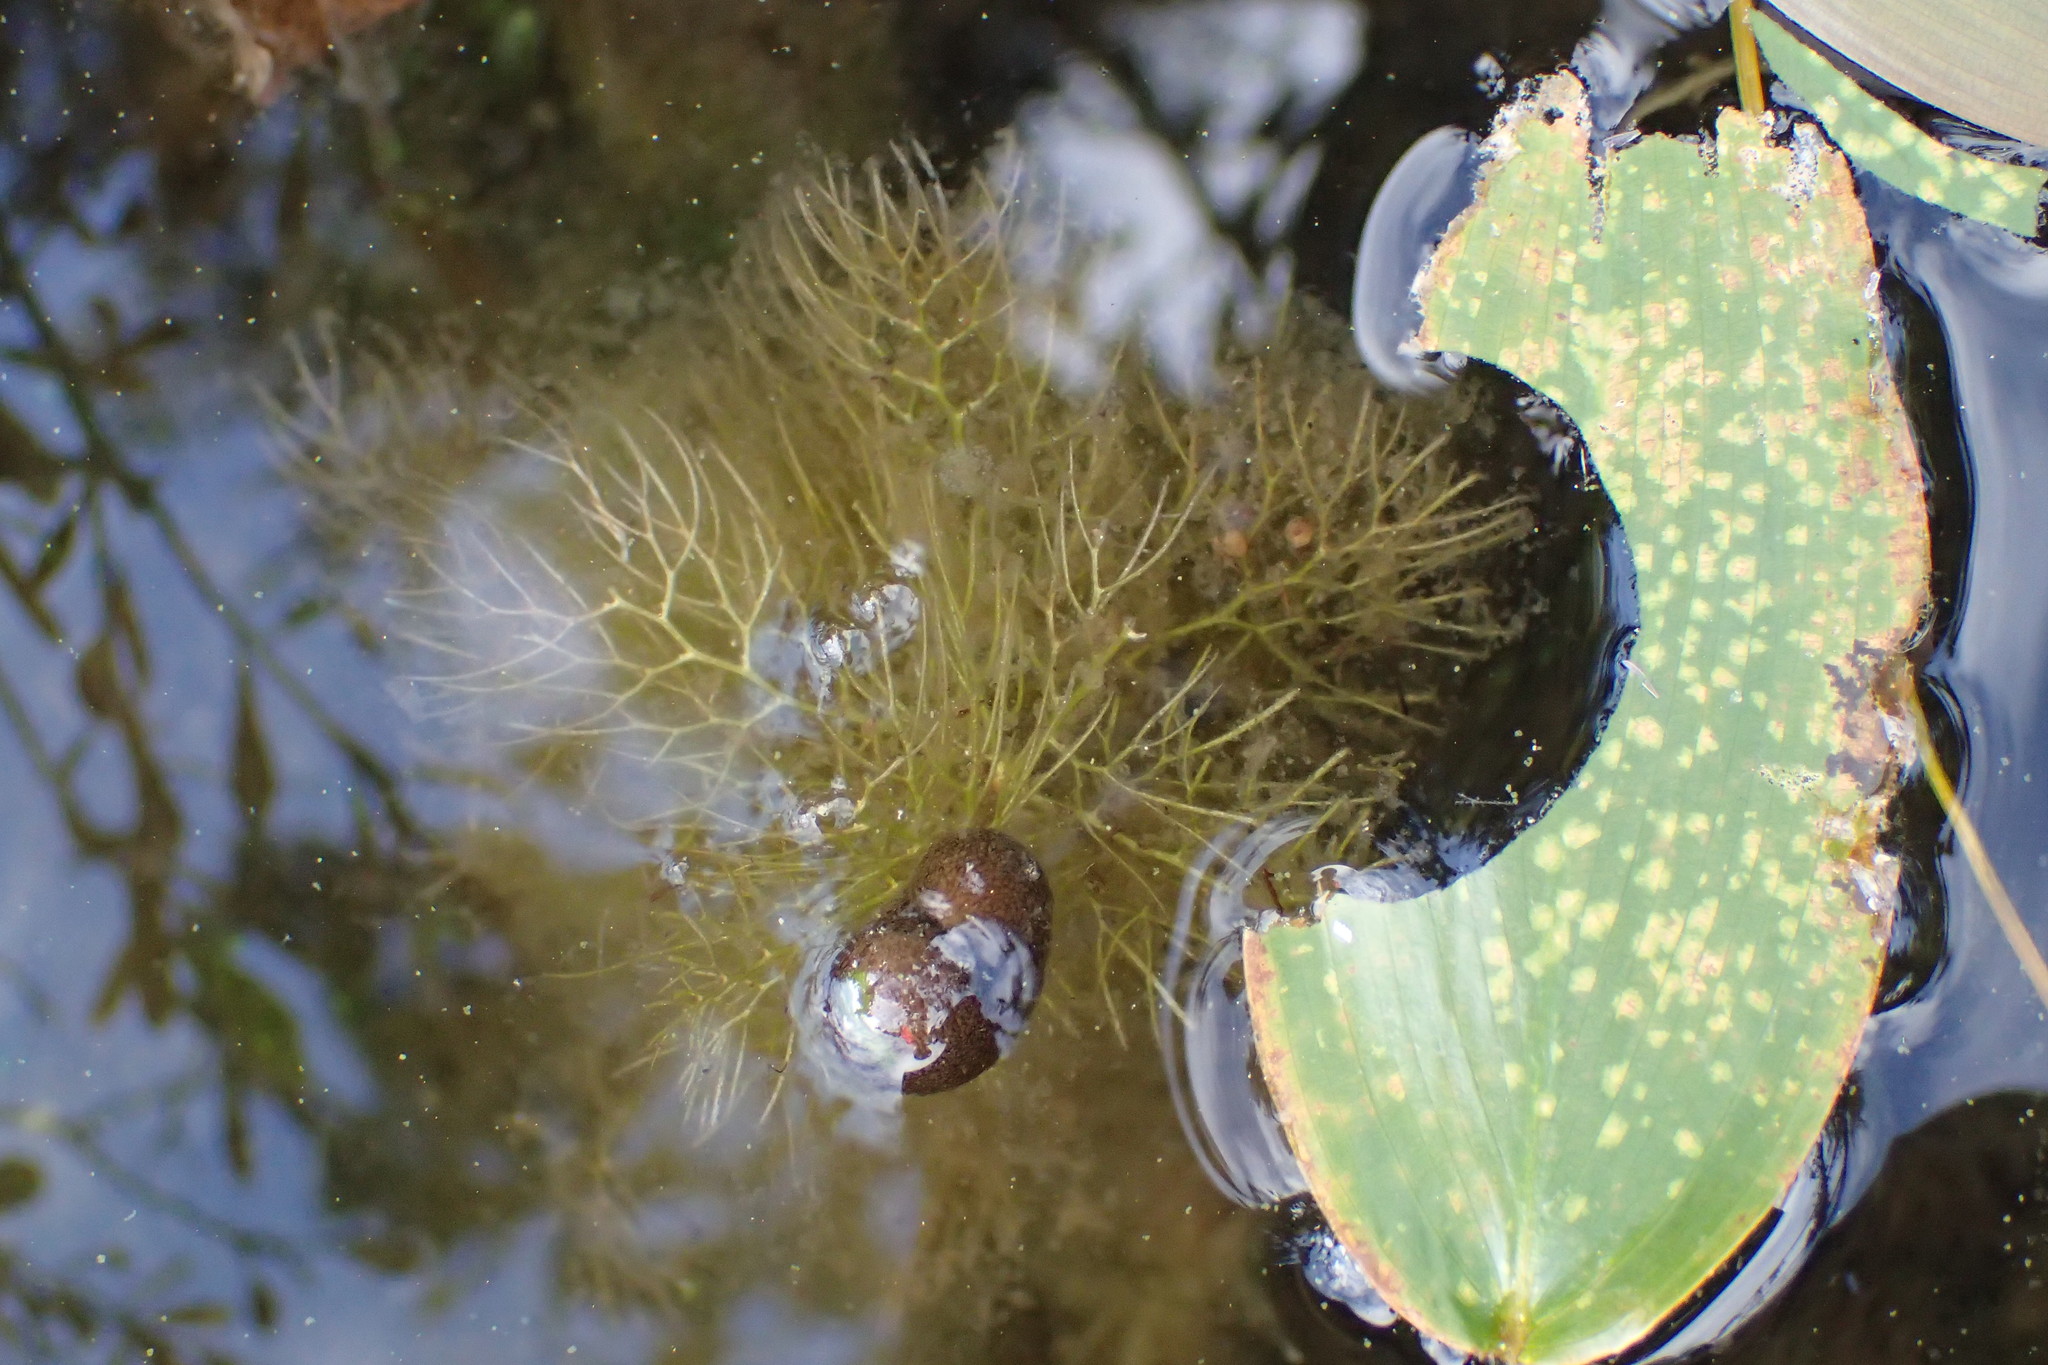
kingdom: Plantae
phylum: Tracheophyta
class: Magnoliopsida
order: Lamiales
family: Lentibulariaceae
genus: Utricularia
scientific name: Utricularia macrorhiza
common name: Common bladderwort
